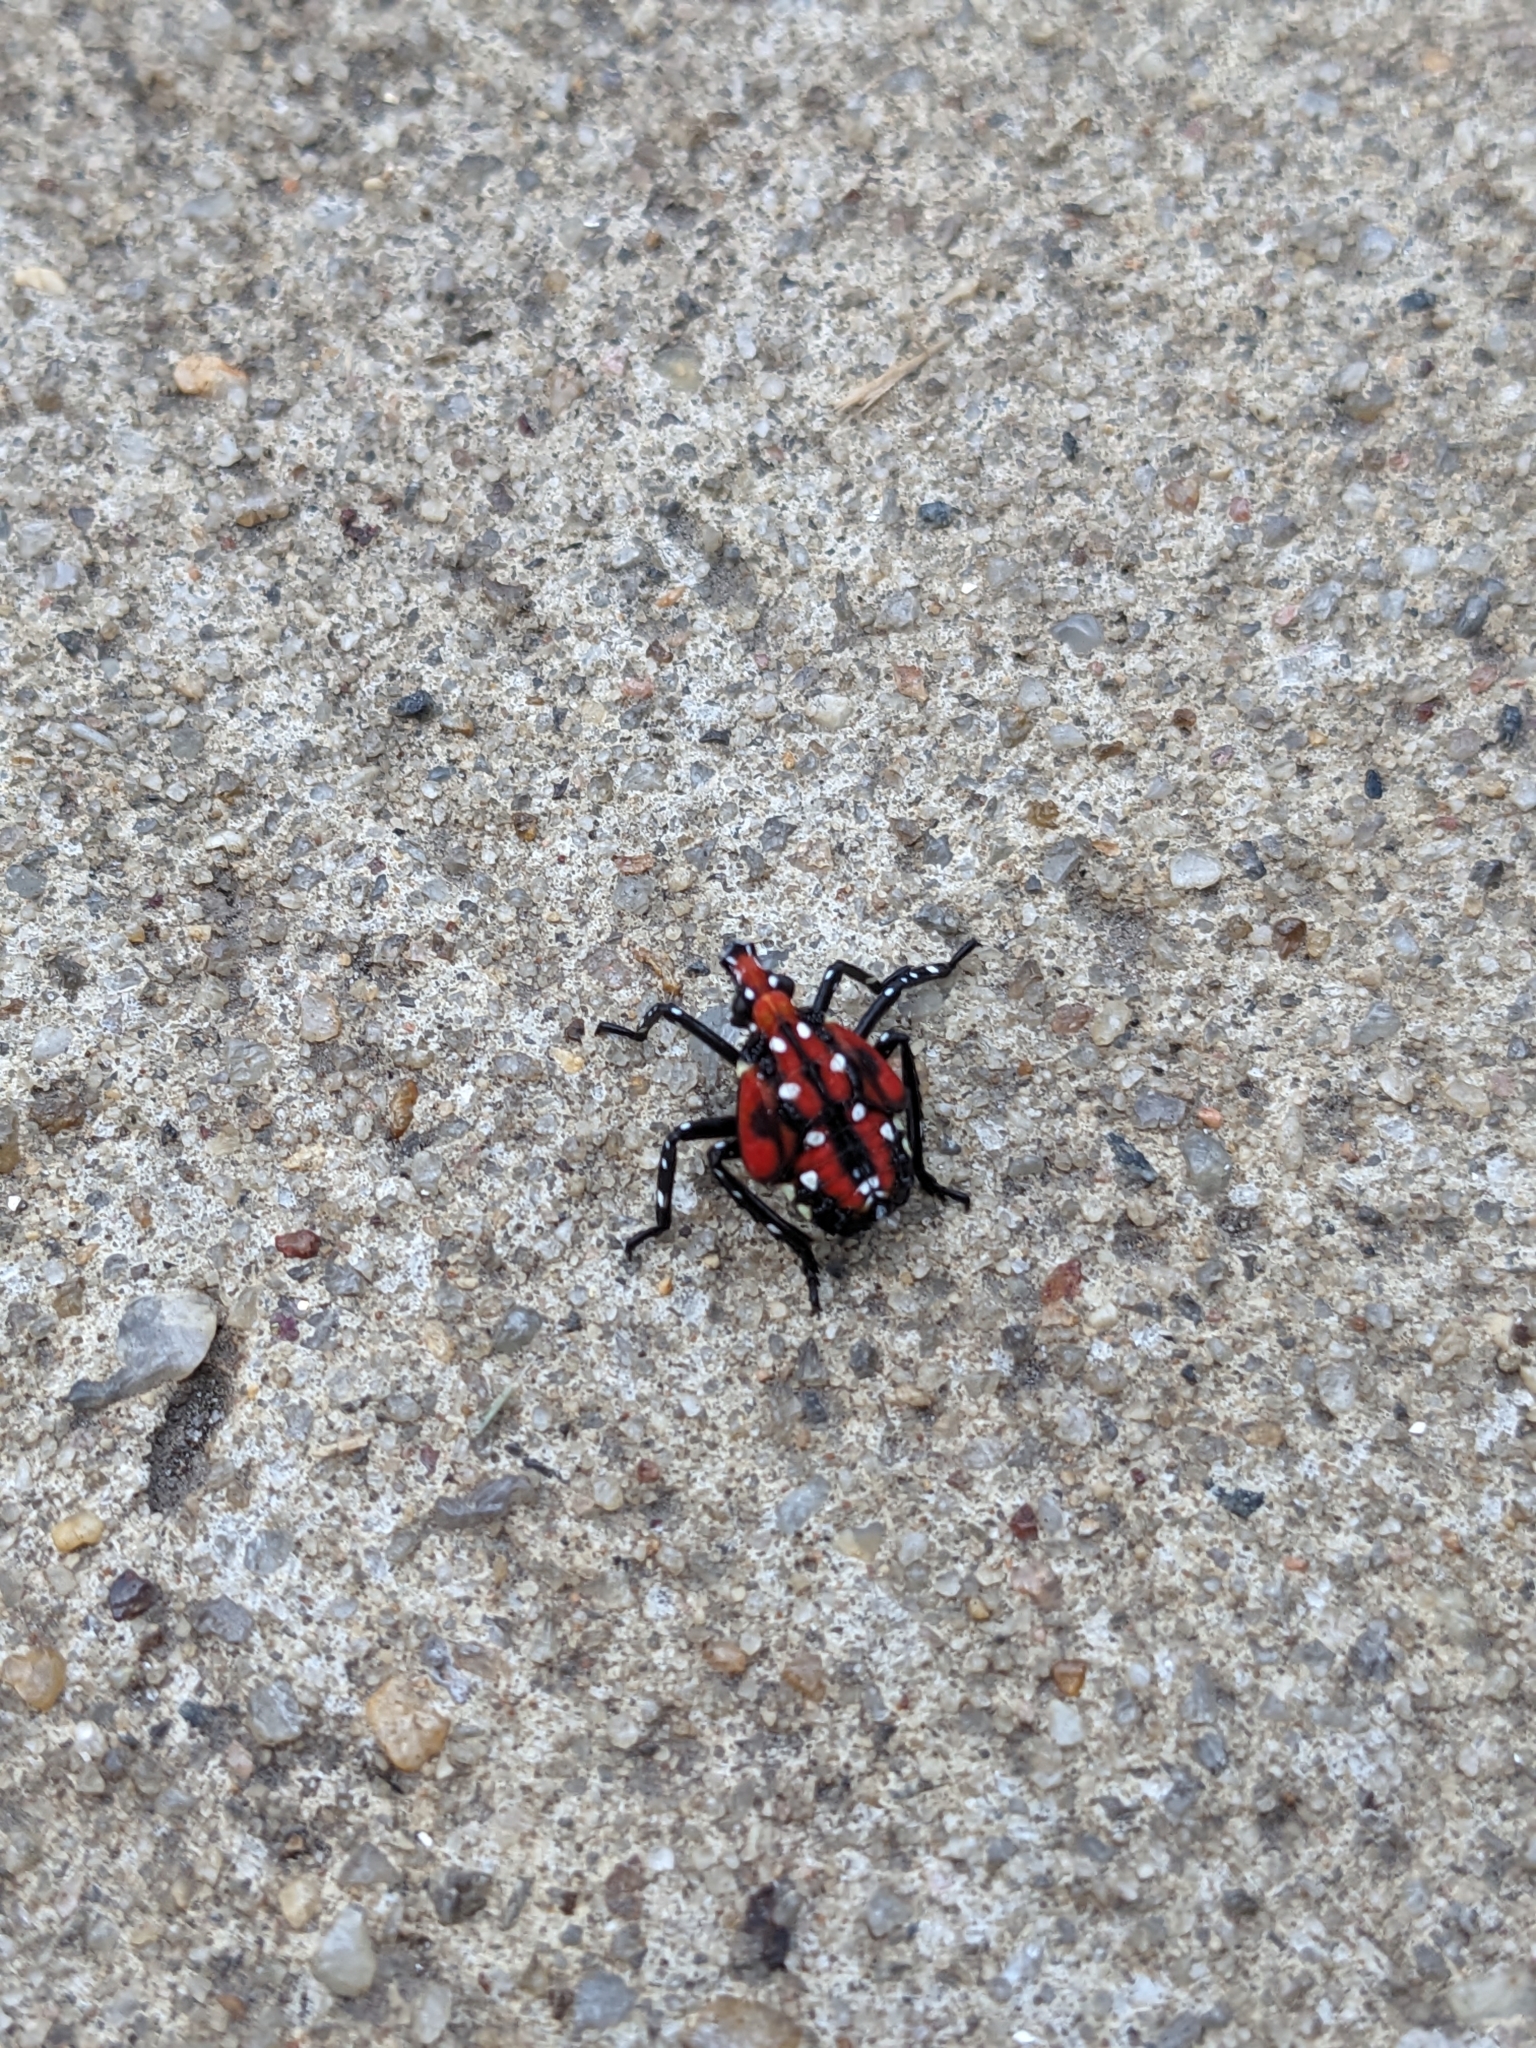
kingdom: Animalia
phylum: Arthropoda
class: Insecta
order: Hemiptera
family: Fulgoridae
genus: Lycorma
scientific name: Lycorma delicatula
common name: Spotted lanternfly
